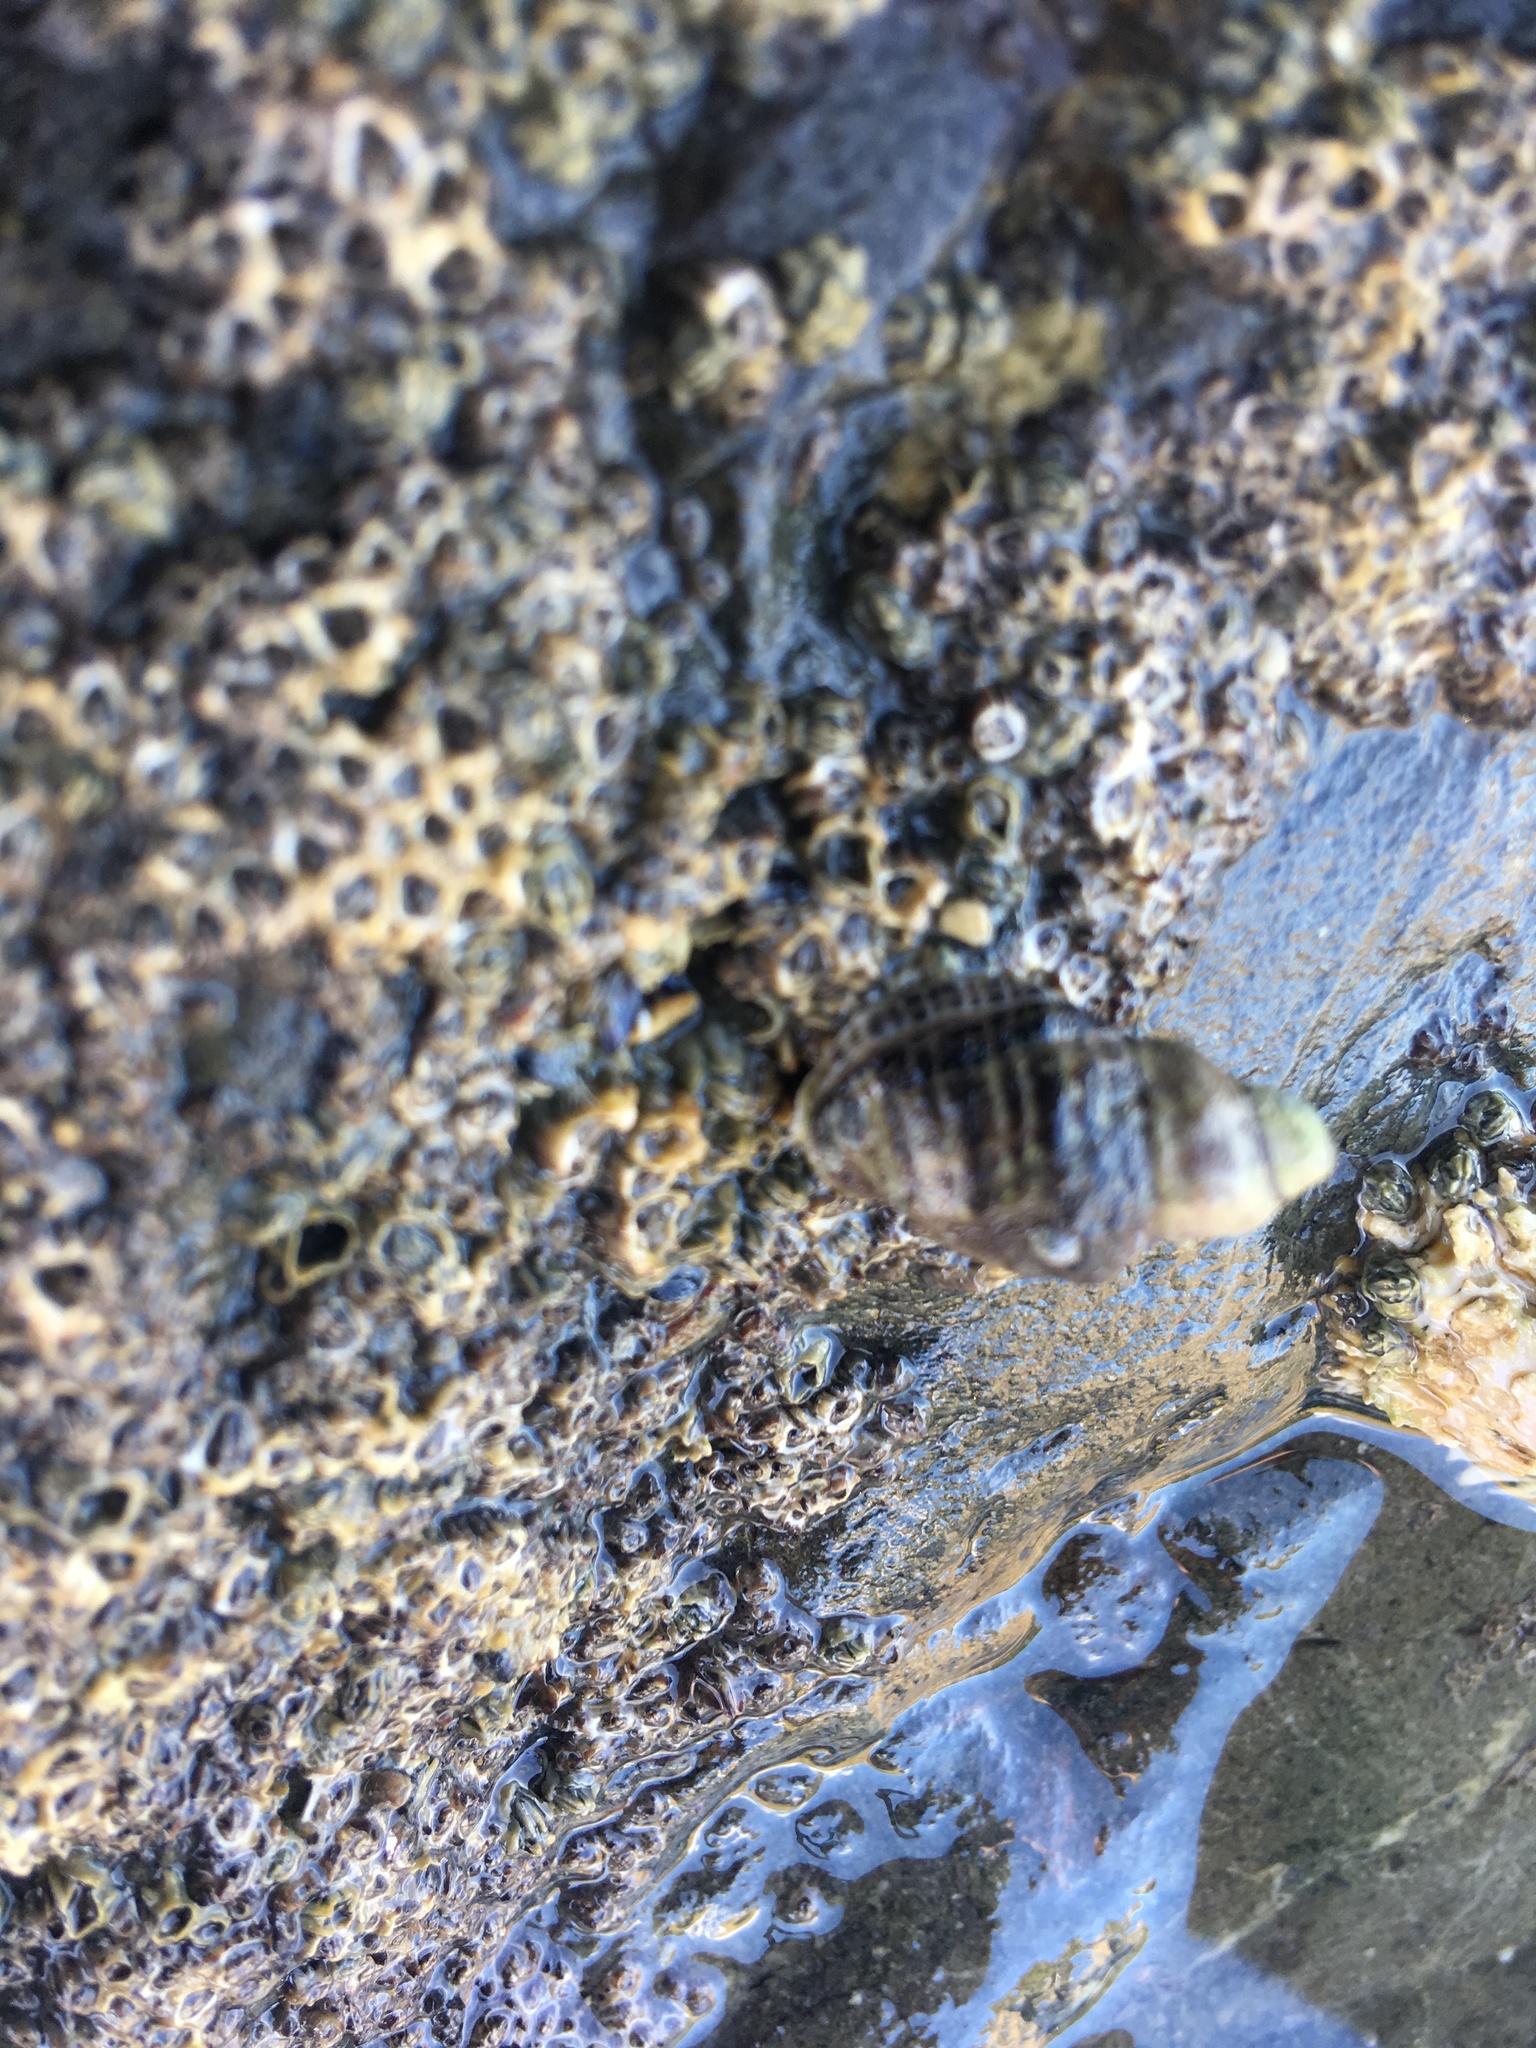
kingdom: Animalia
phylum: Mollusca
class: Gastropoda
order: Neogastropoda
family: Muricidae
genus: Haustrum
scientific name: Haustrum scobina
